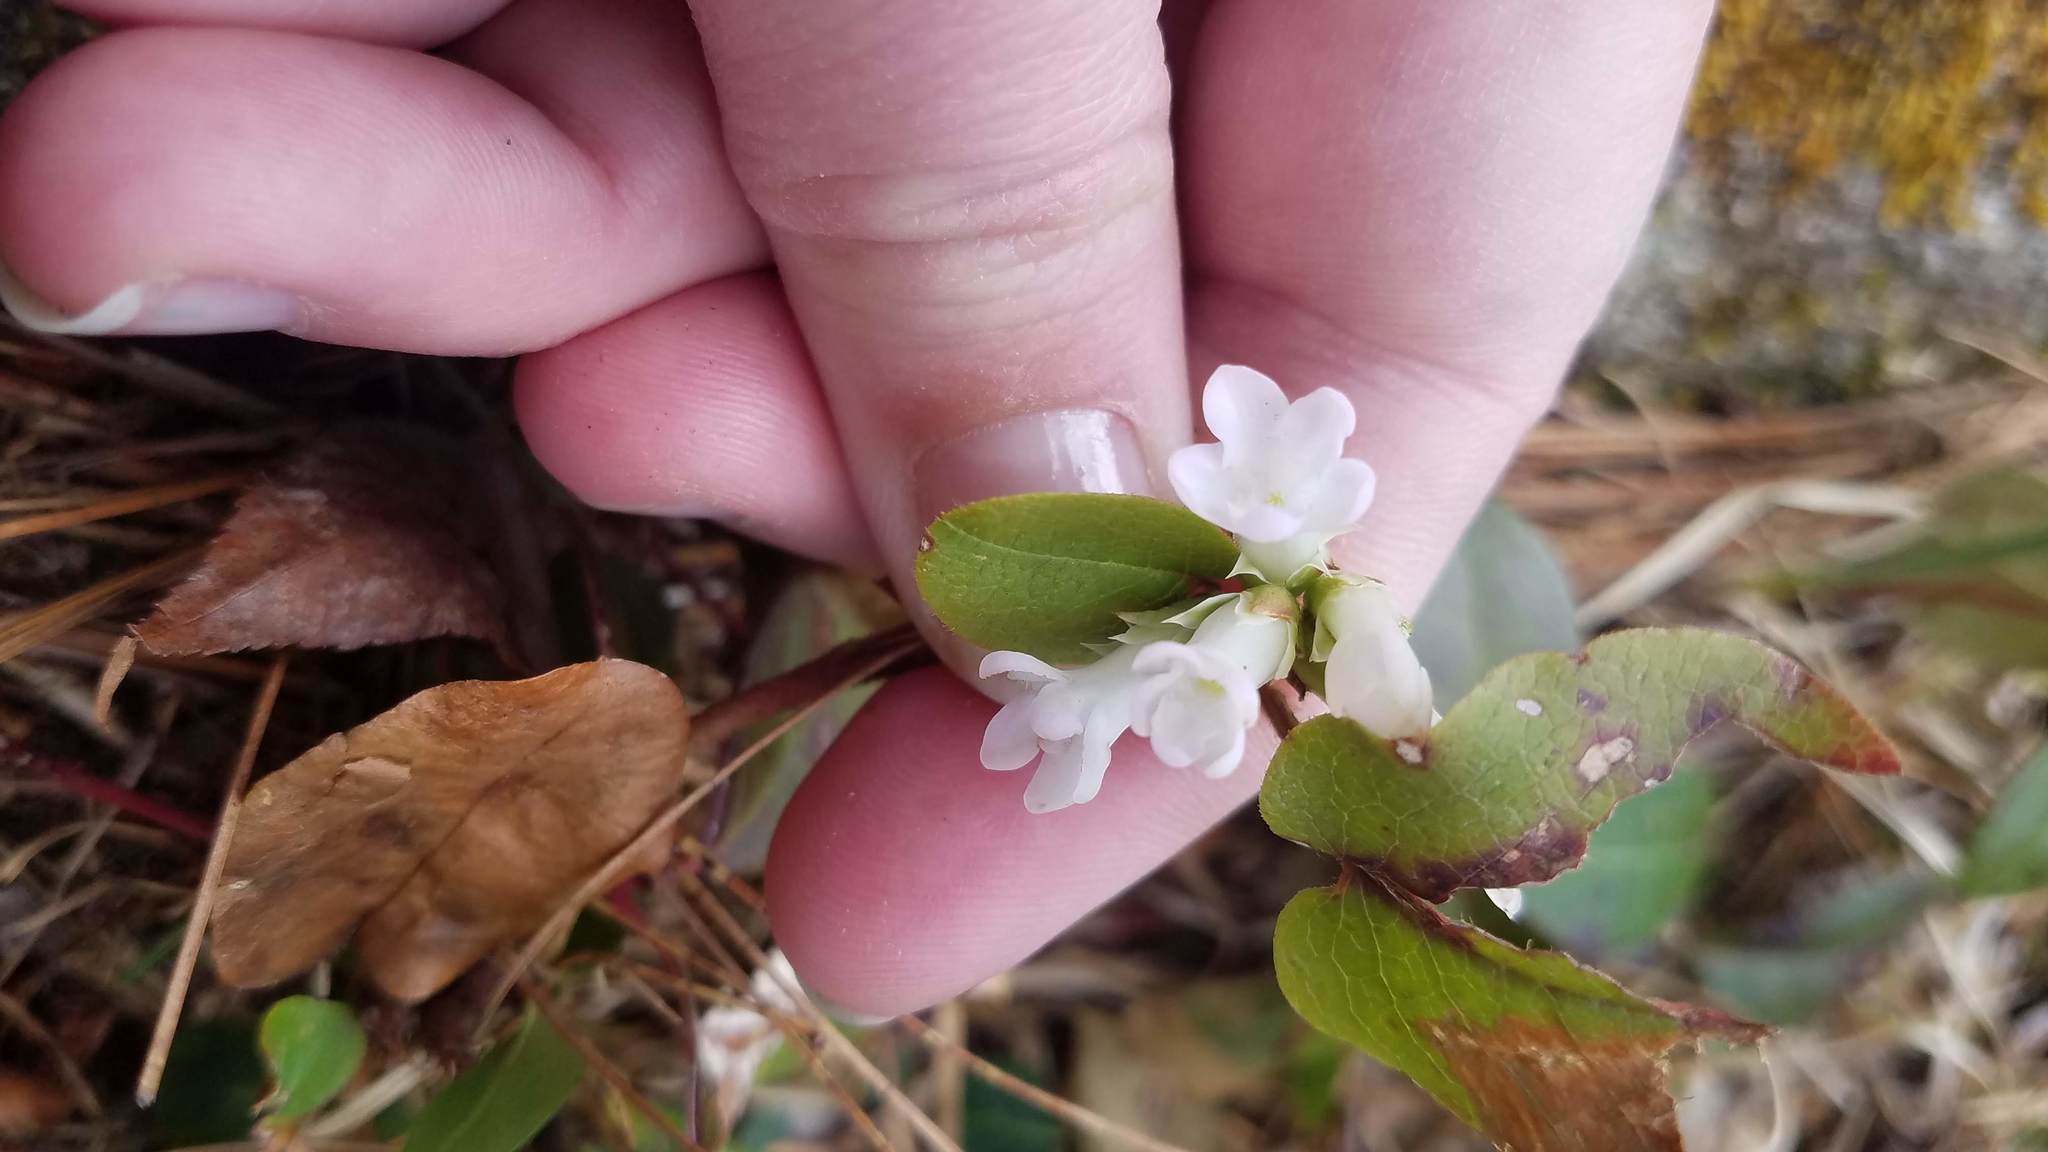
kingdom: Plantae
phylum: Tracheophyta
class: Magnoliopsida
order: Ericales
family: Ericaceae
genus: Epigaea
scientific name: Epigaea repens
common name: Gravelroot
